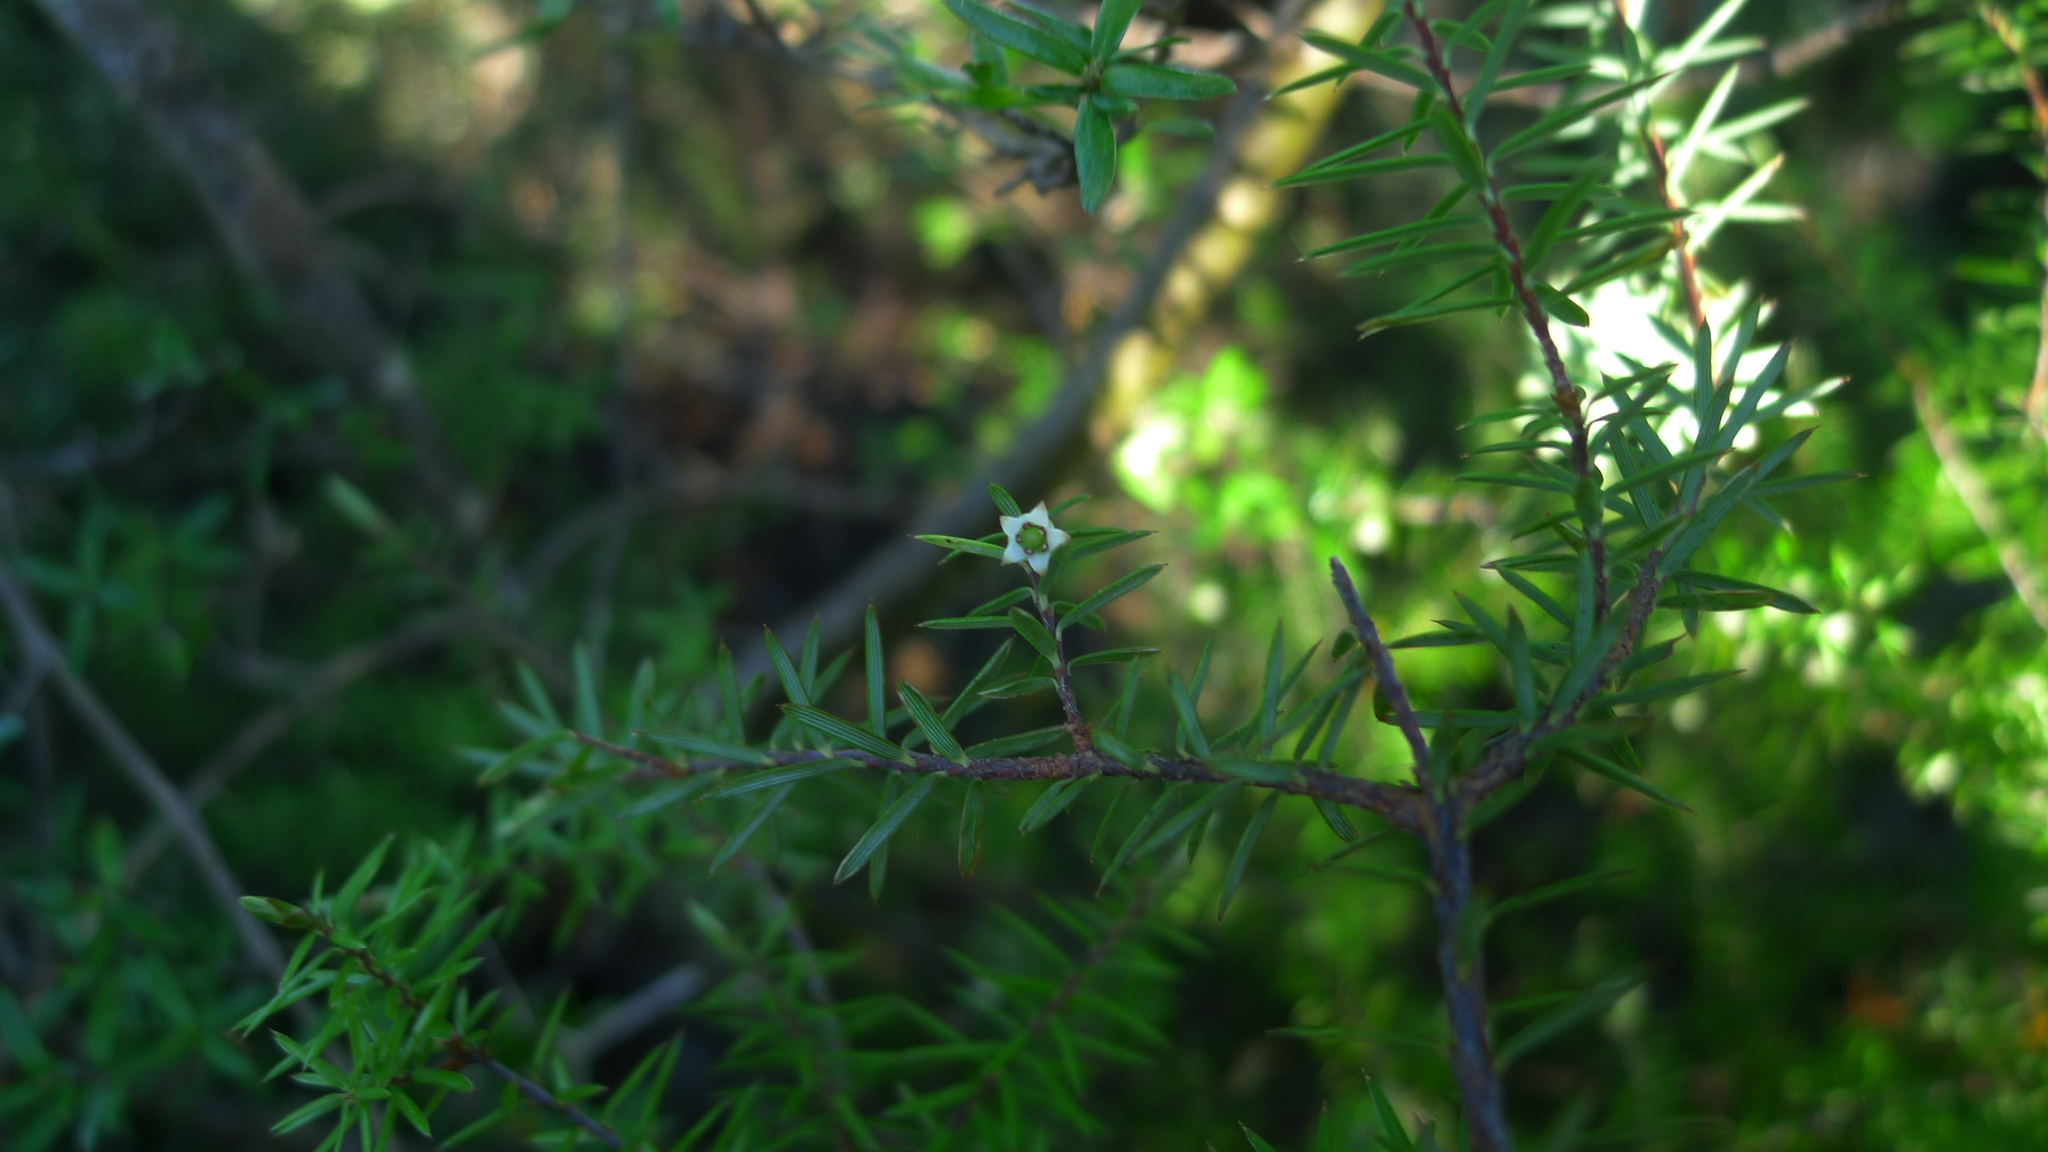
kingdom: Plantae
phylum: Tracheophyta
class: Magnoliopsida
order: Ericales
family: Ericaceae
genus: Leptecophylla
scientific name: Leptecophylla juniperina
